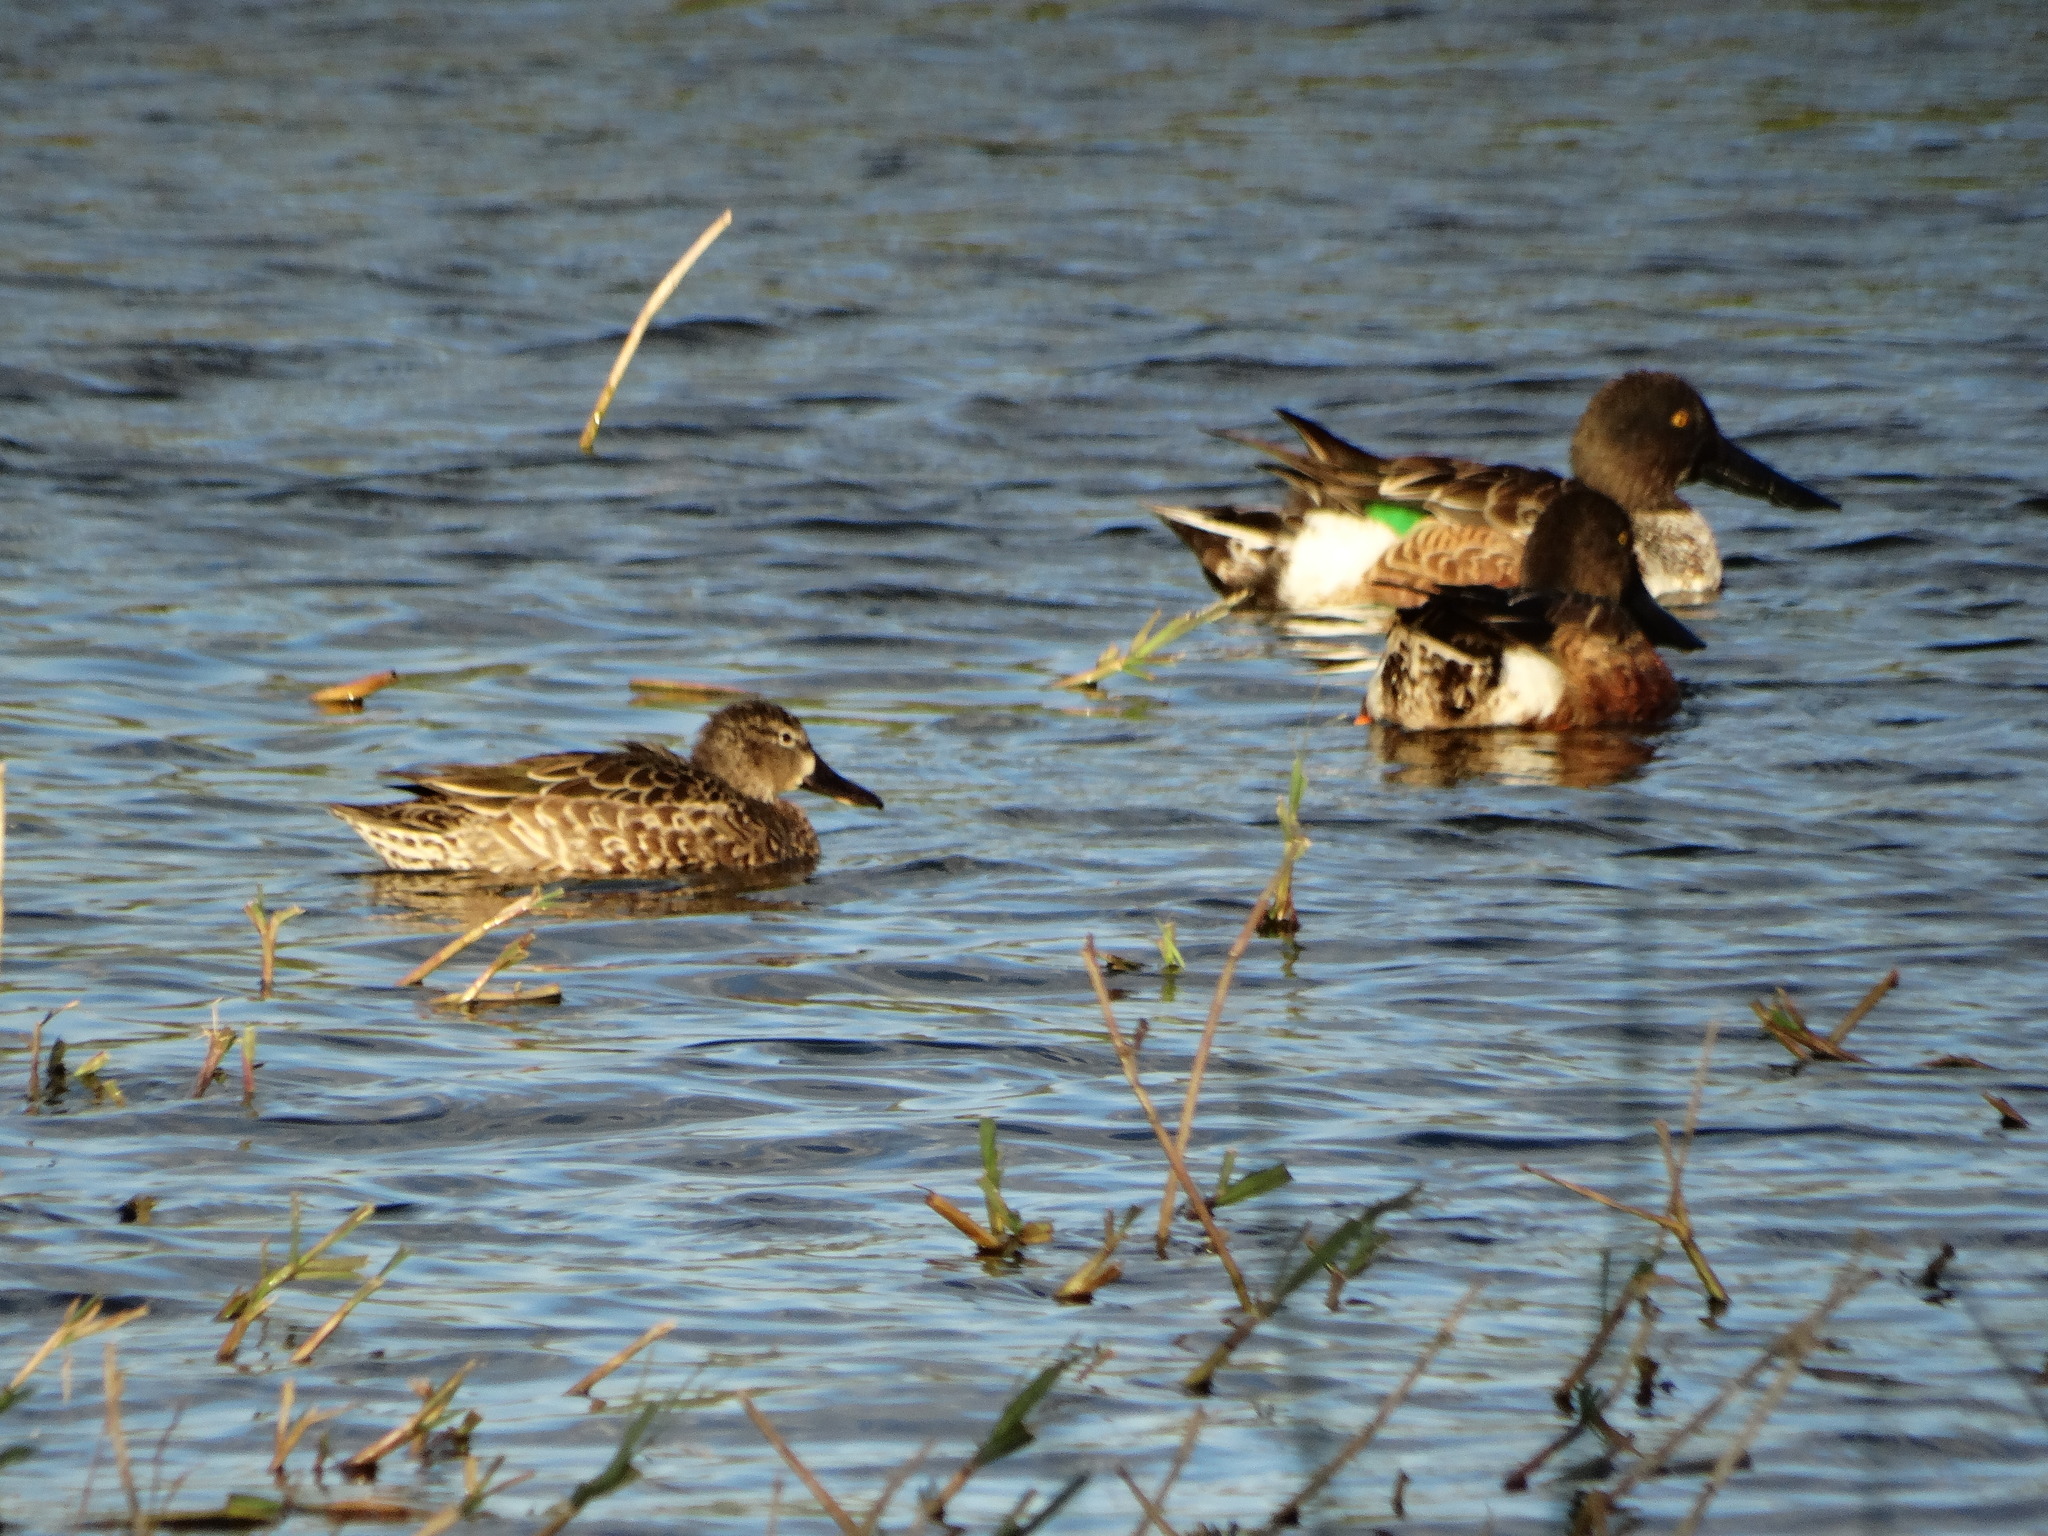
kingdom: Animalia
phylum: Chordata
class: Aves
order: Anseriformes
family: Anatidae
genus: Spatula
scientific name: Spatula clypeata
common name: Northern shoveler
